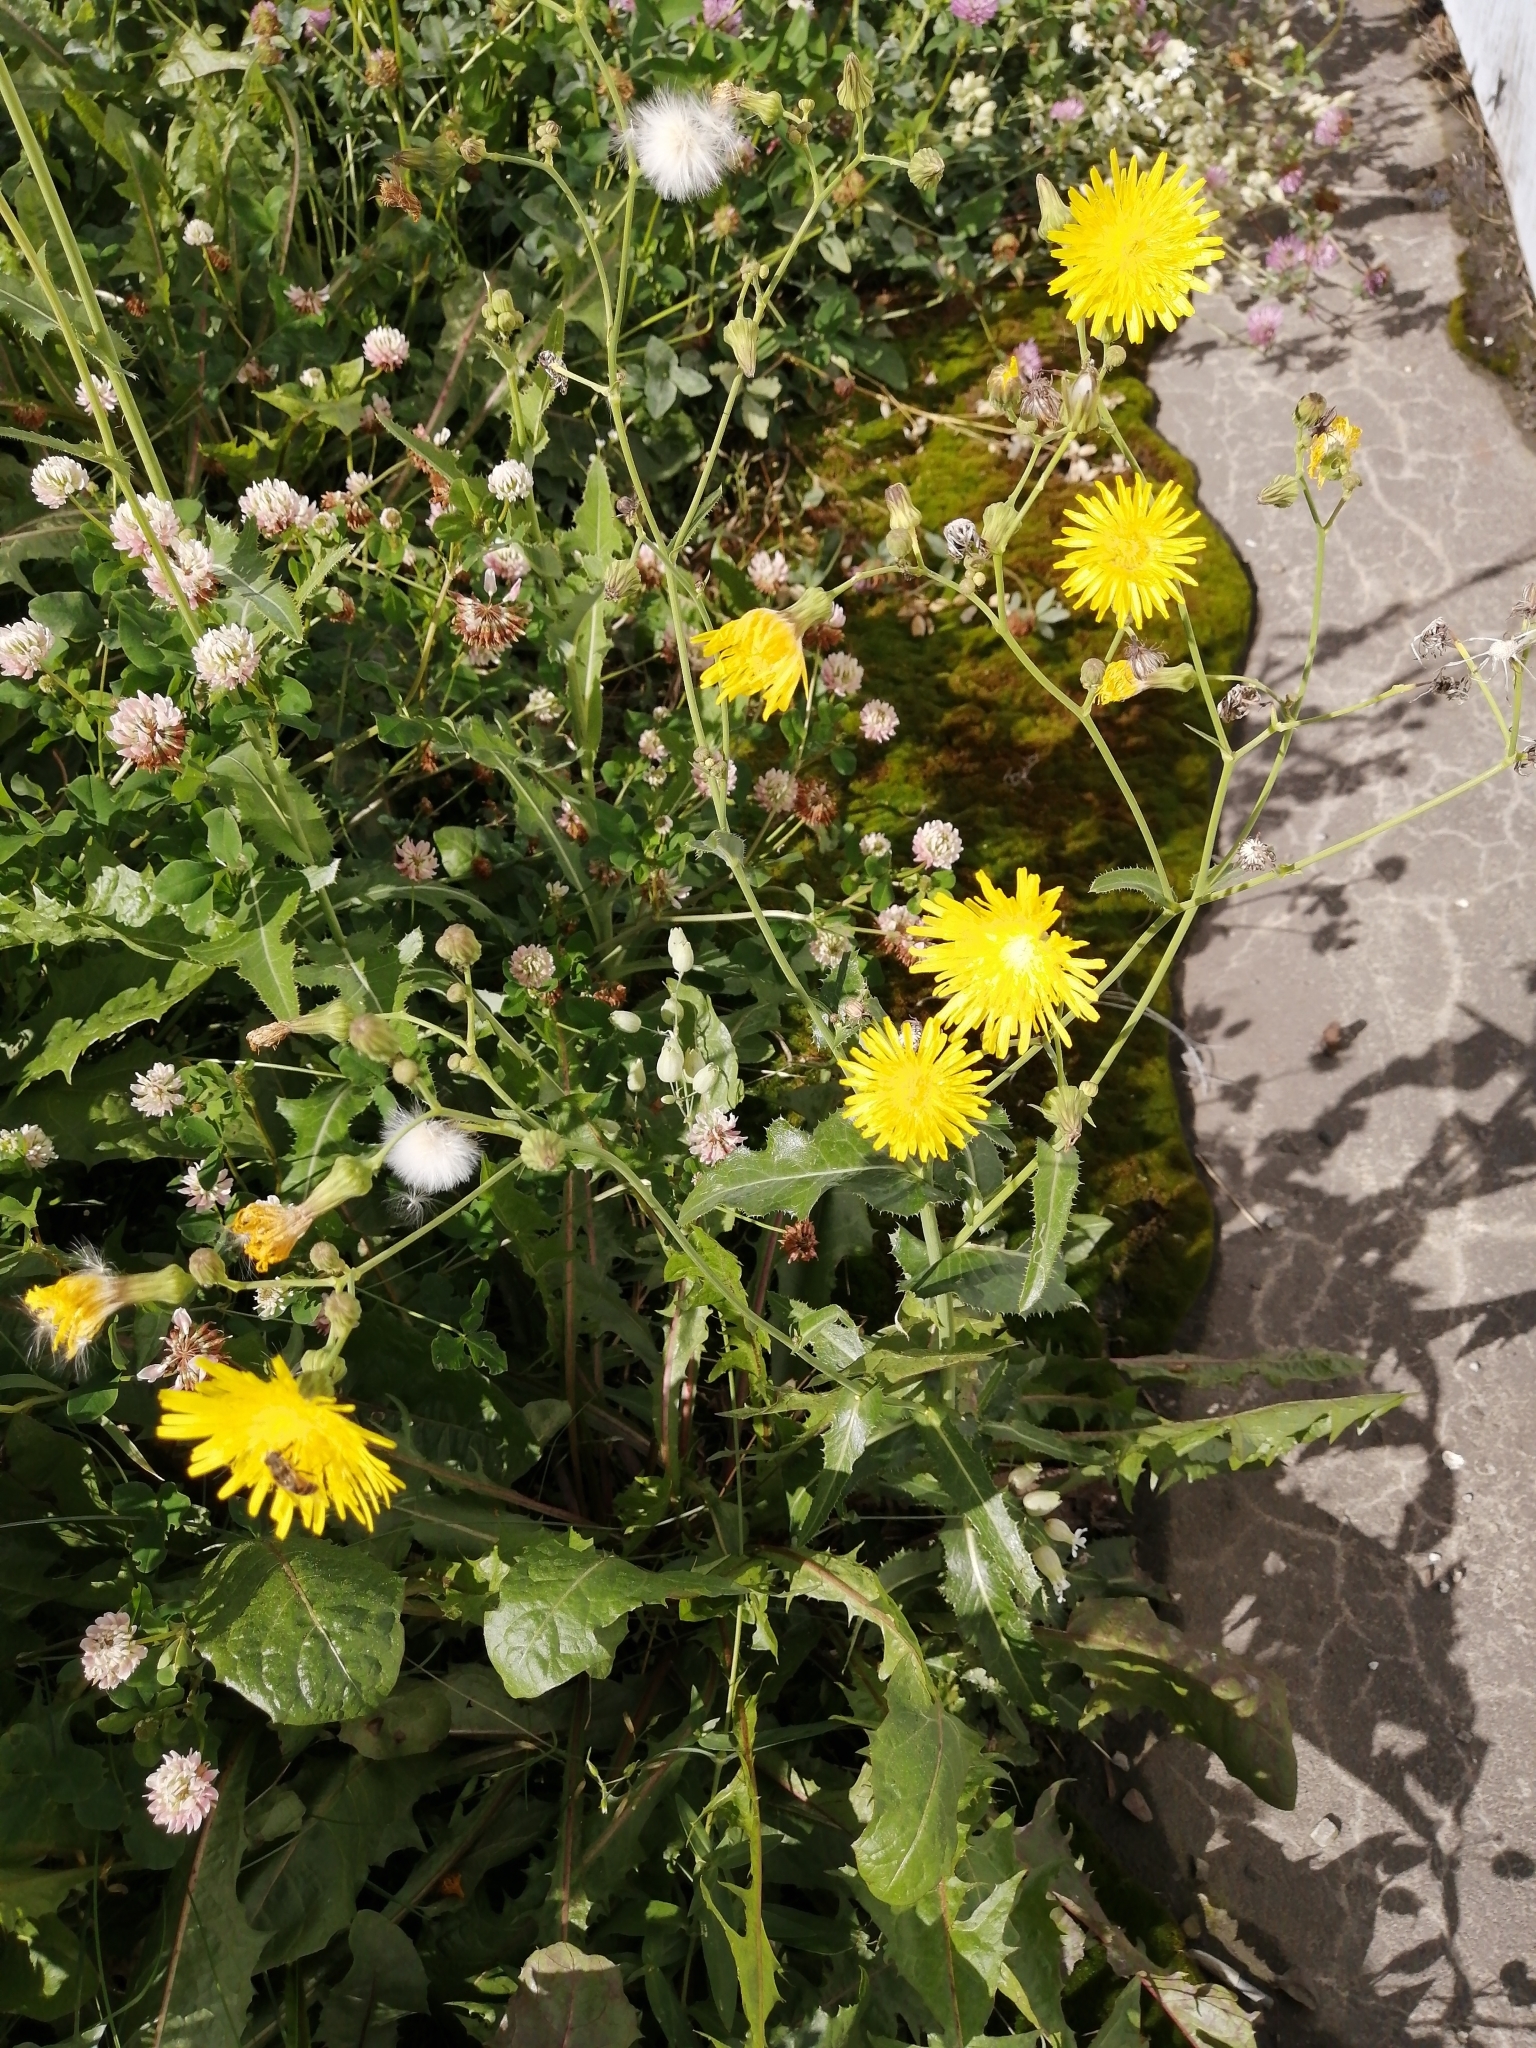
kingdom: Plantae
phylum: Tracheophyta
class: Magnoliopsida
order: Asterales
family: Asteraceae
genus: Sonchus
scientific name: Sonchus arvensis
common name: Perennial sow-thistle
